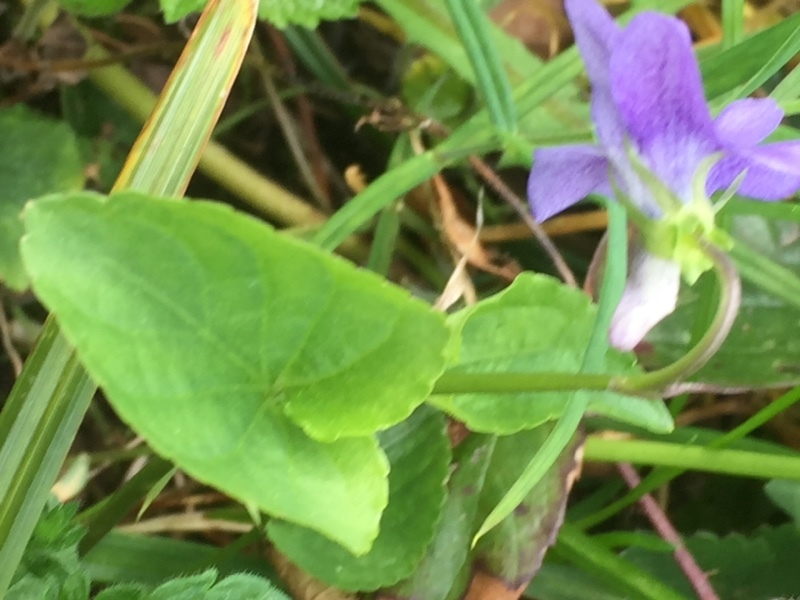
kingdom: Plantae
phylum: Tracheophyta
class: Magnoliopsida
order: Malpighiales
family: Violaceae
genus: Viola
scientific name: Viola riviniana
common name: Common dog-violet
